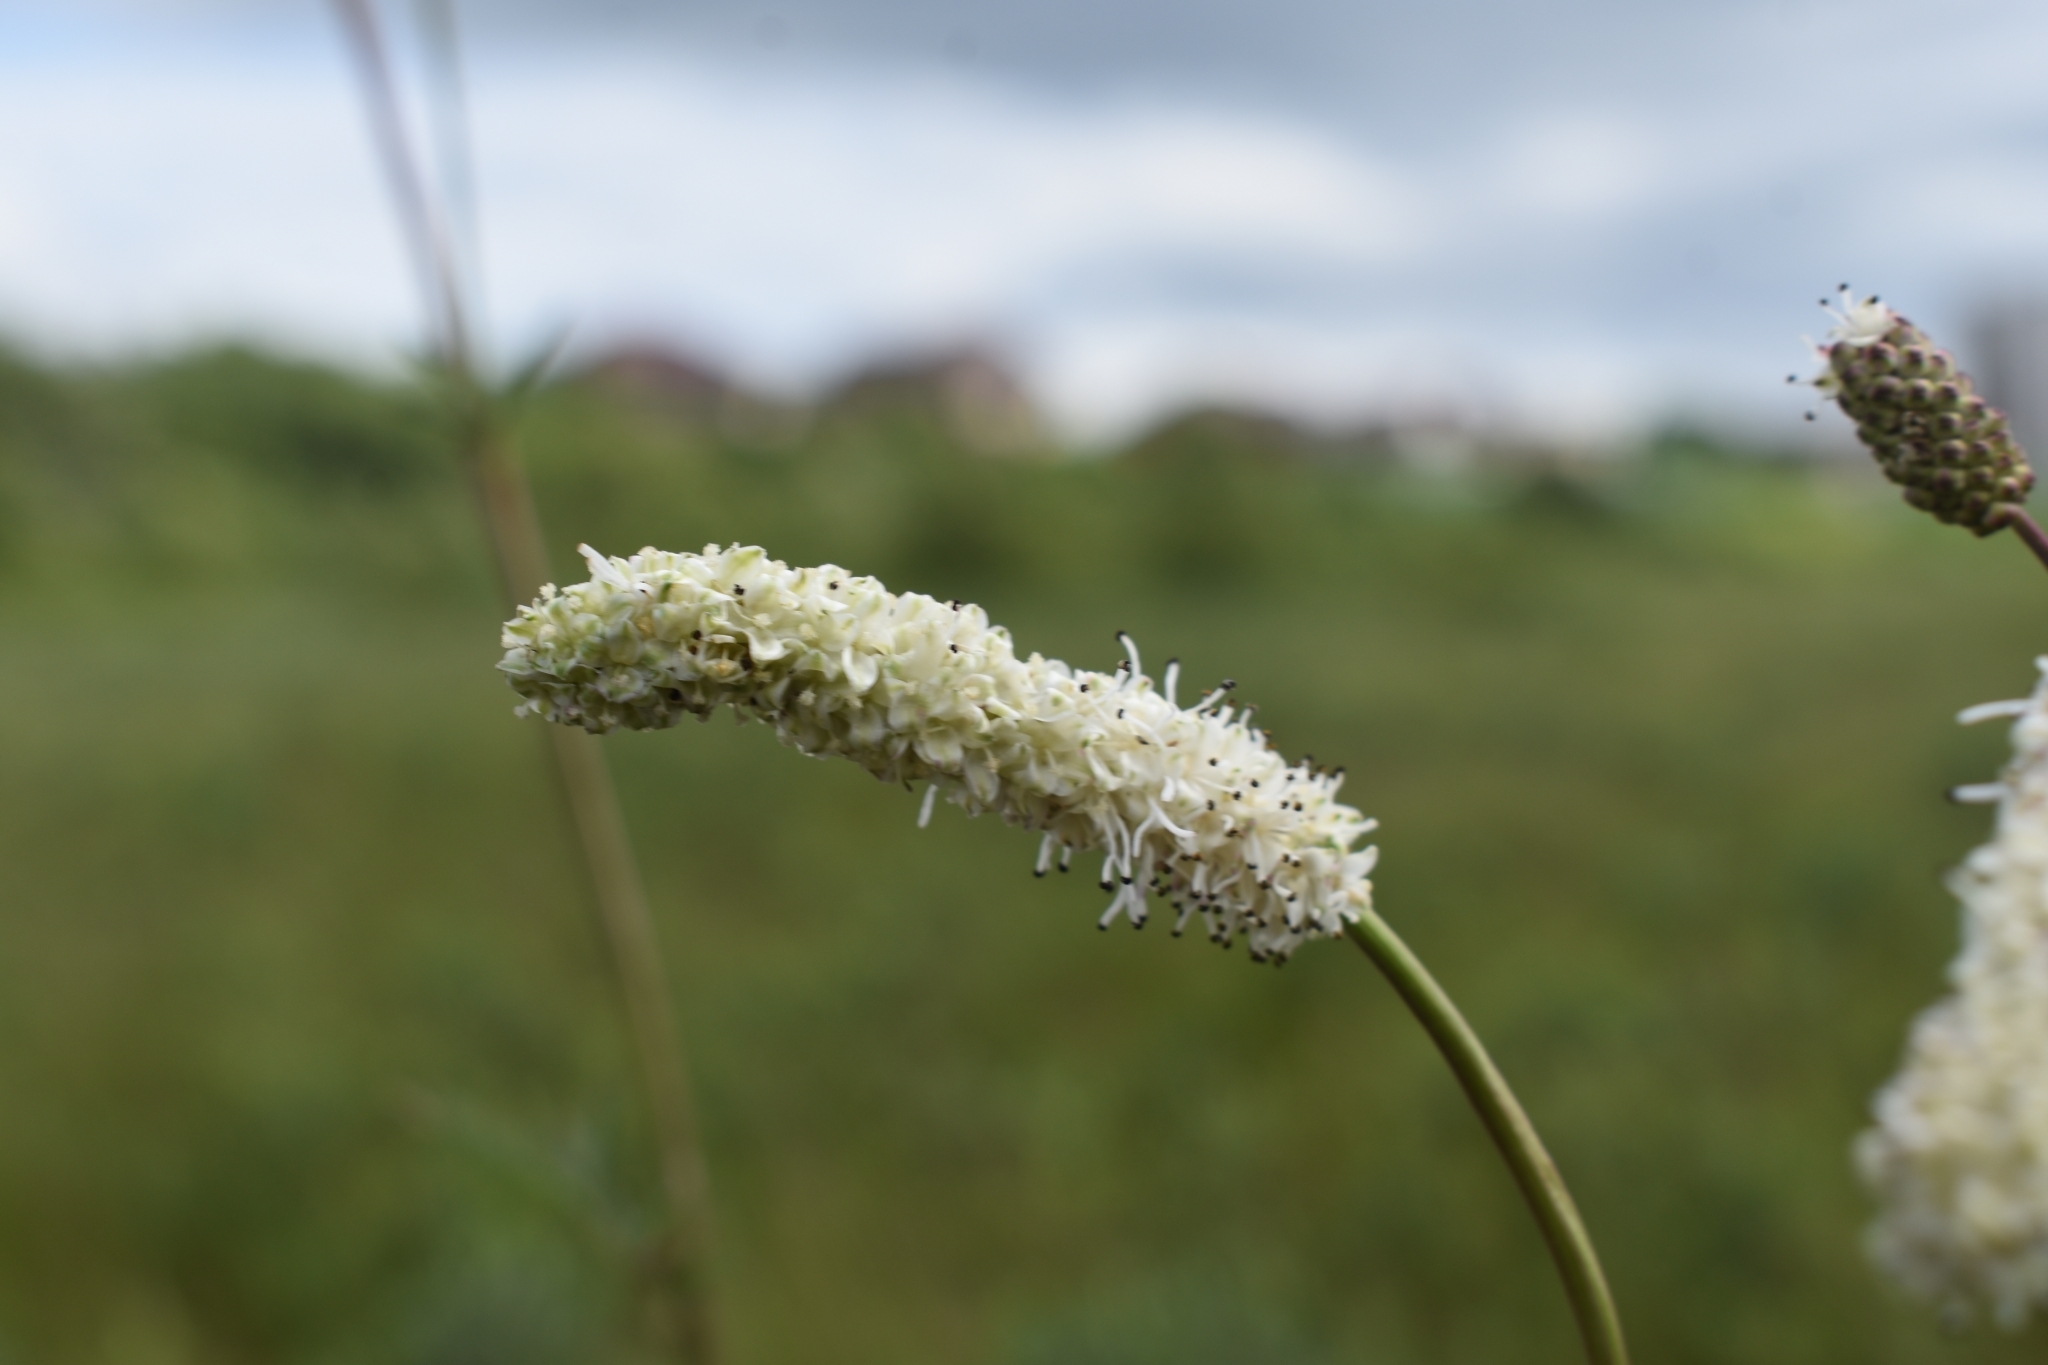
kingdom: Plantae
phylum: Tracheophyta
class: Magnoliopsida
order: Rosales
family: Rosaceae
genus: Poterium
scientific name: Poterium tenuifolium
